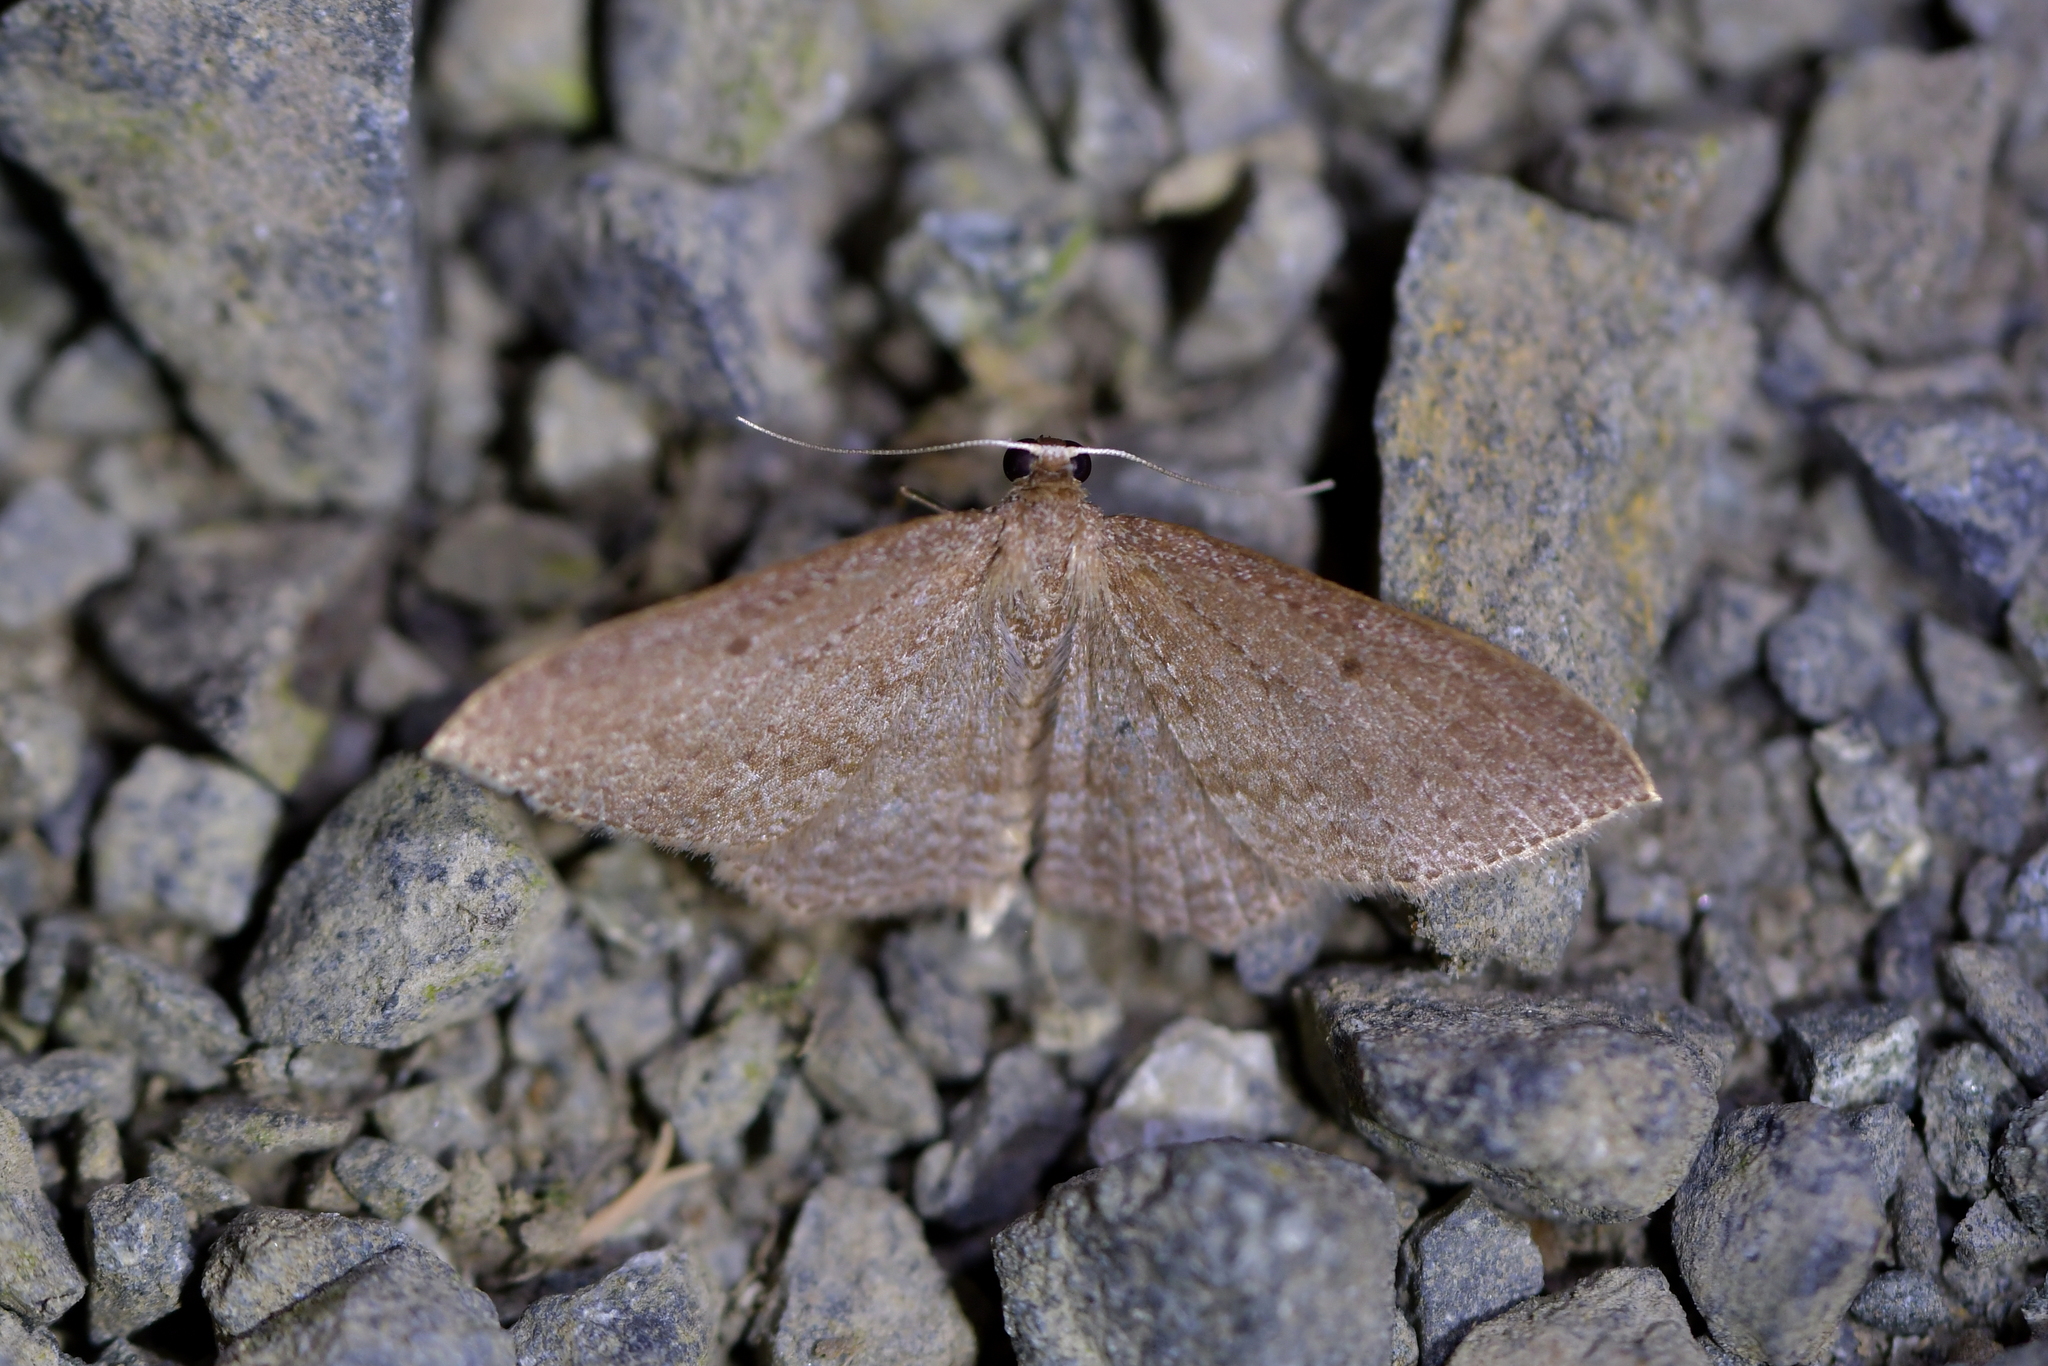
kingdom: Animalia
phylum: Arthropoda
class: Insecta
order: Lepidoptera
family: Geometridae
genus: Poecilasthena
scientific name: Poecilasthena subpurpureata
